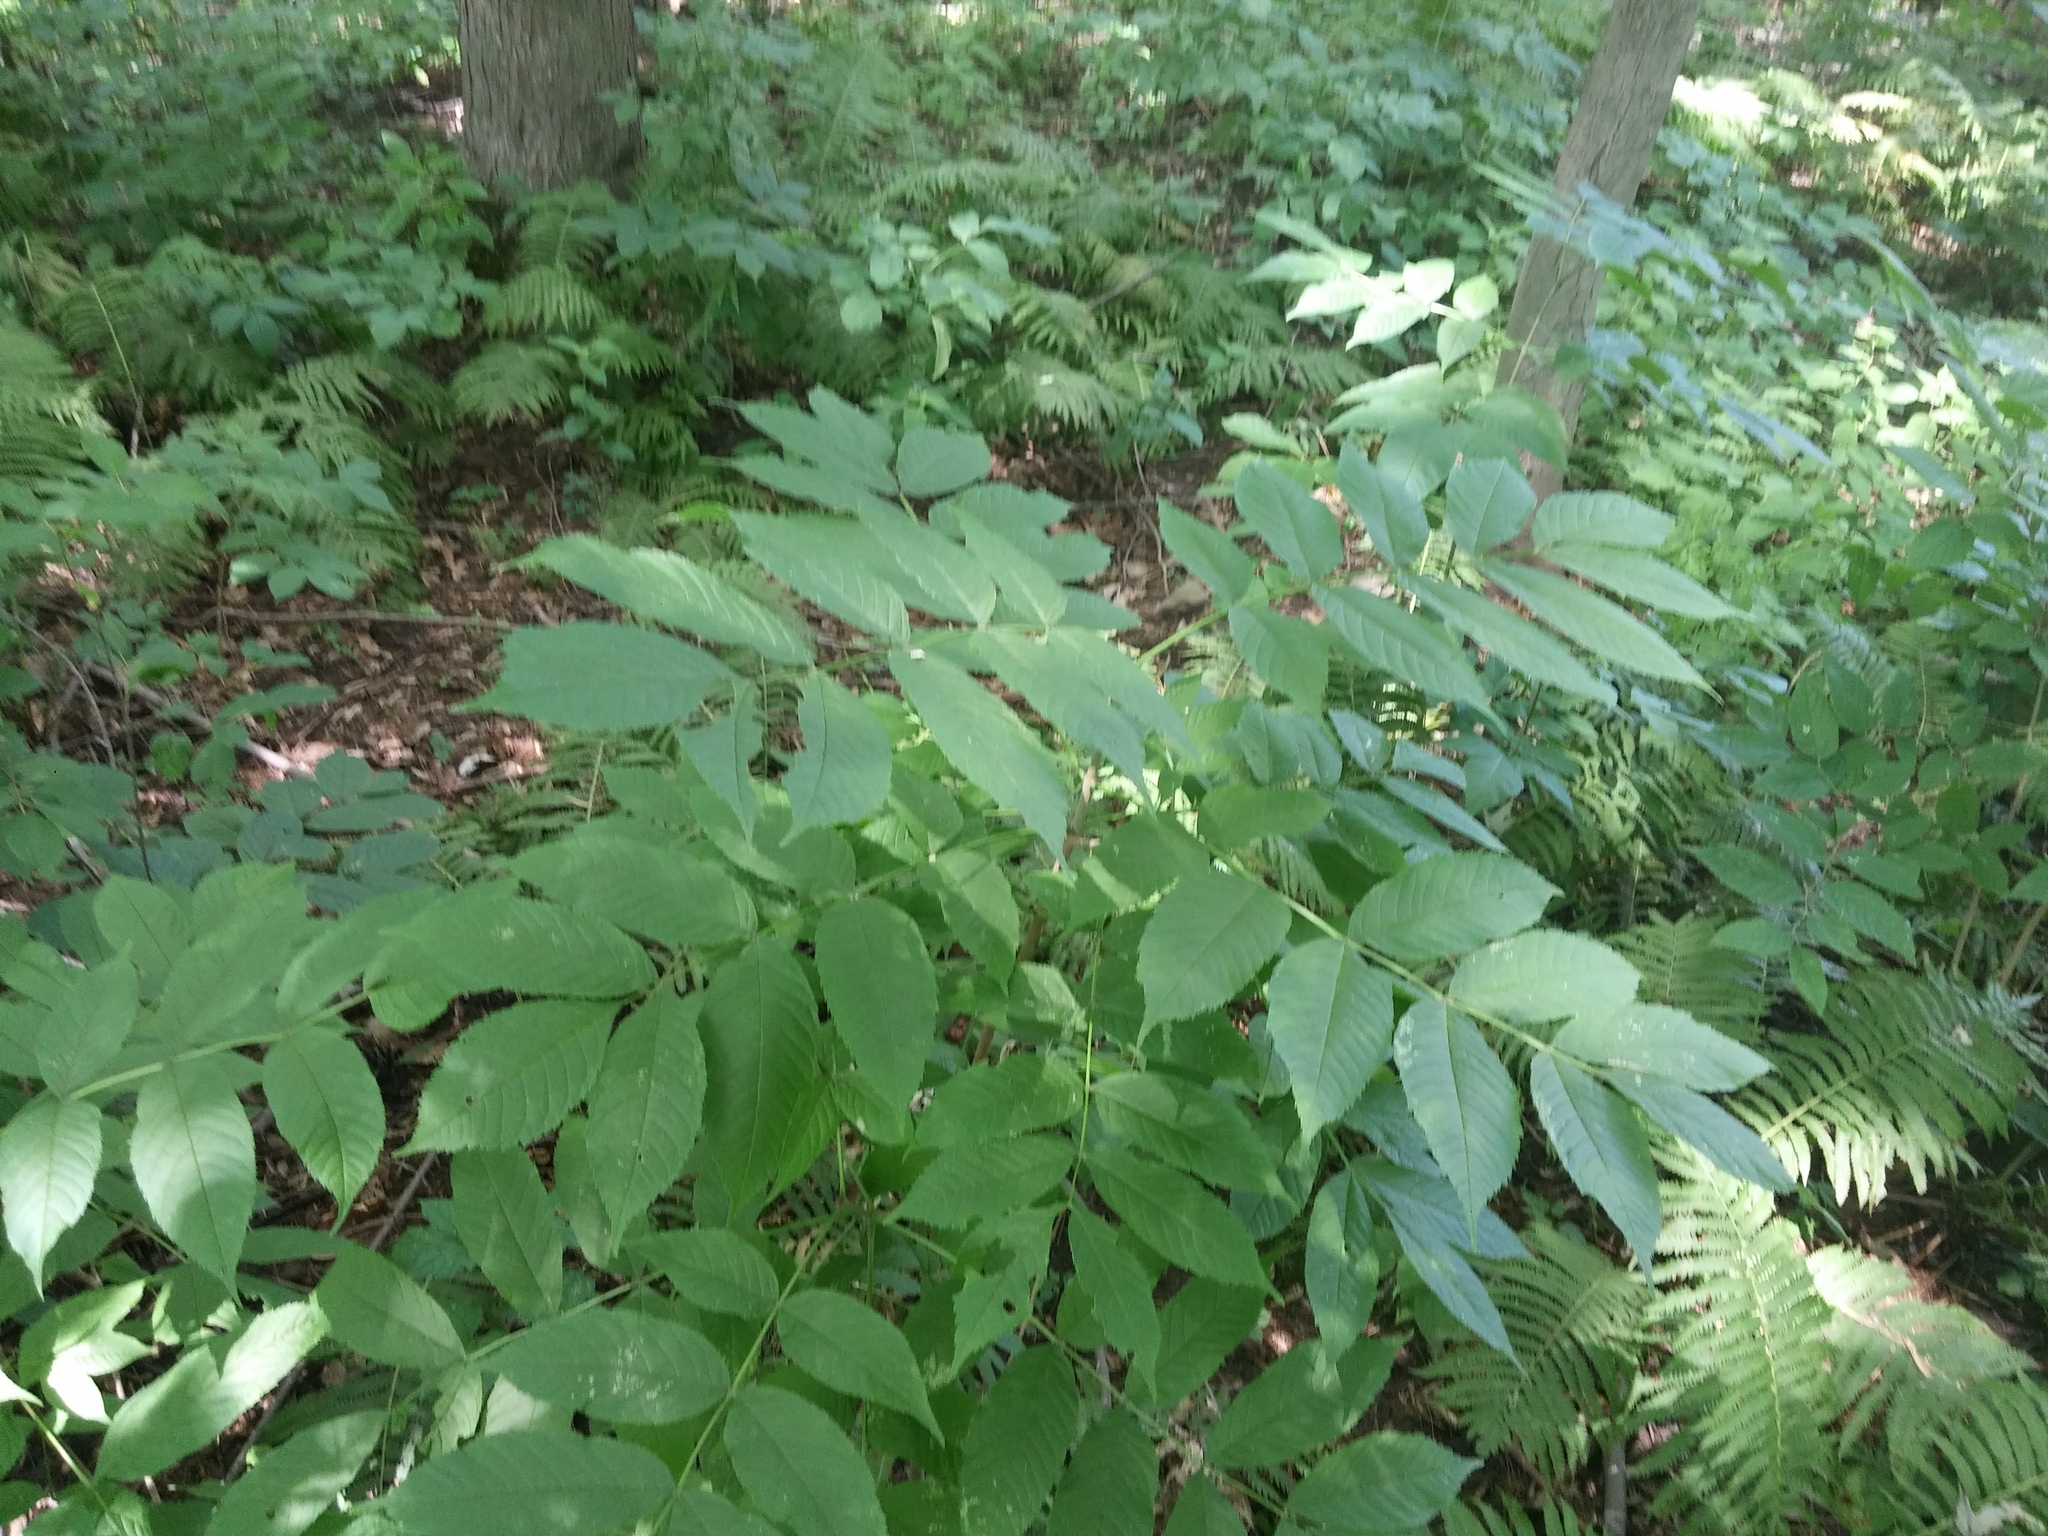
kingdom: Plantae
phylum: Tracheophyta
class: Magnoliopsida
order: Lamiales
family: Oleaceae
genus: Fraxinus
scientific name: Fraxinus nigra
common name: Black ash
